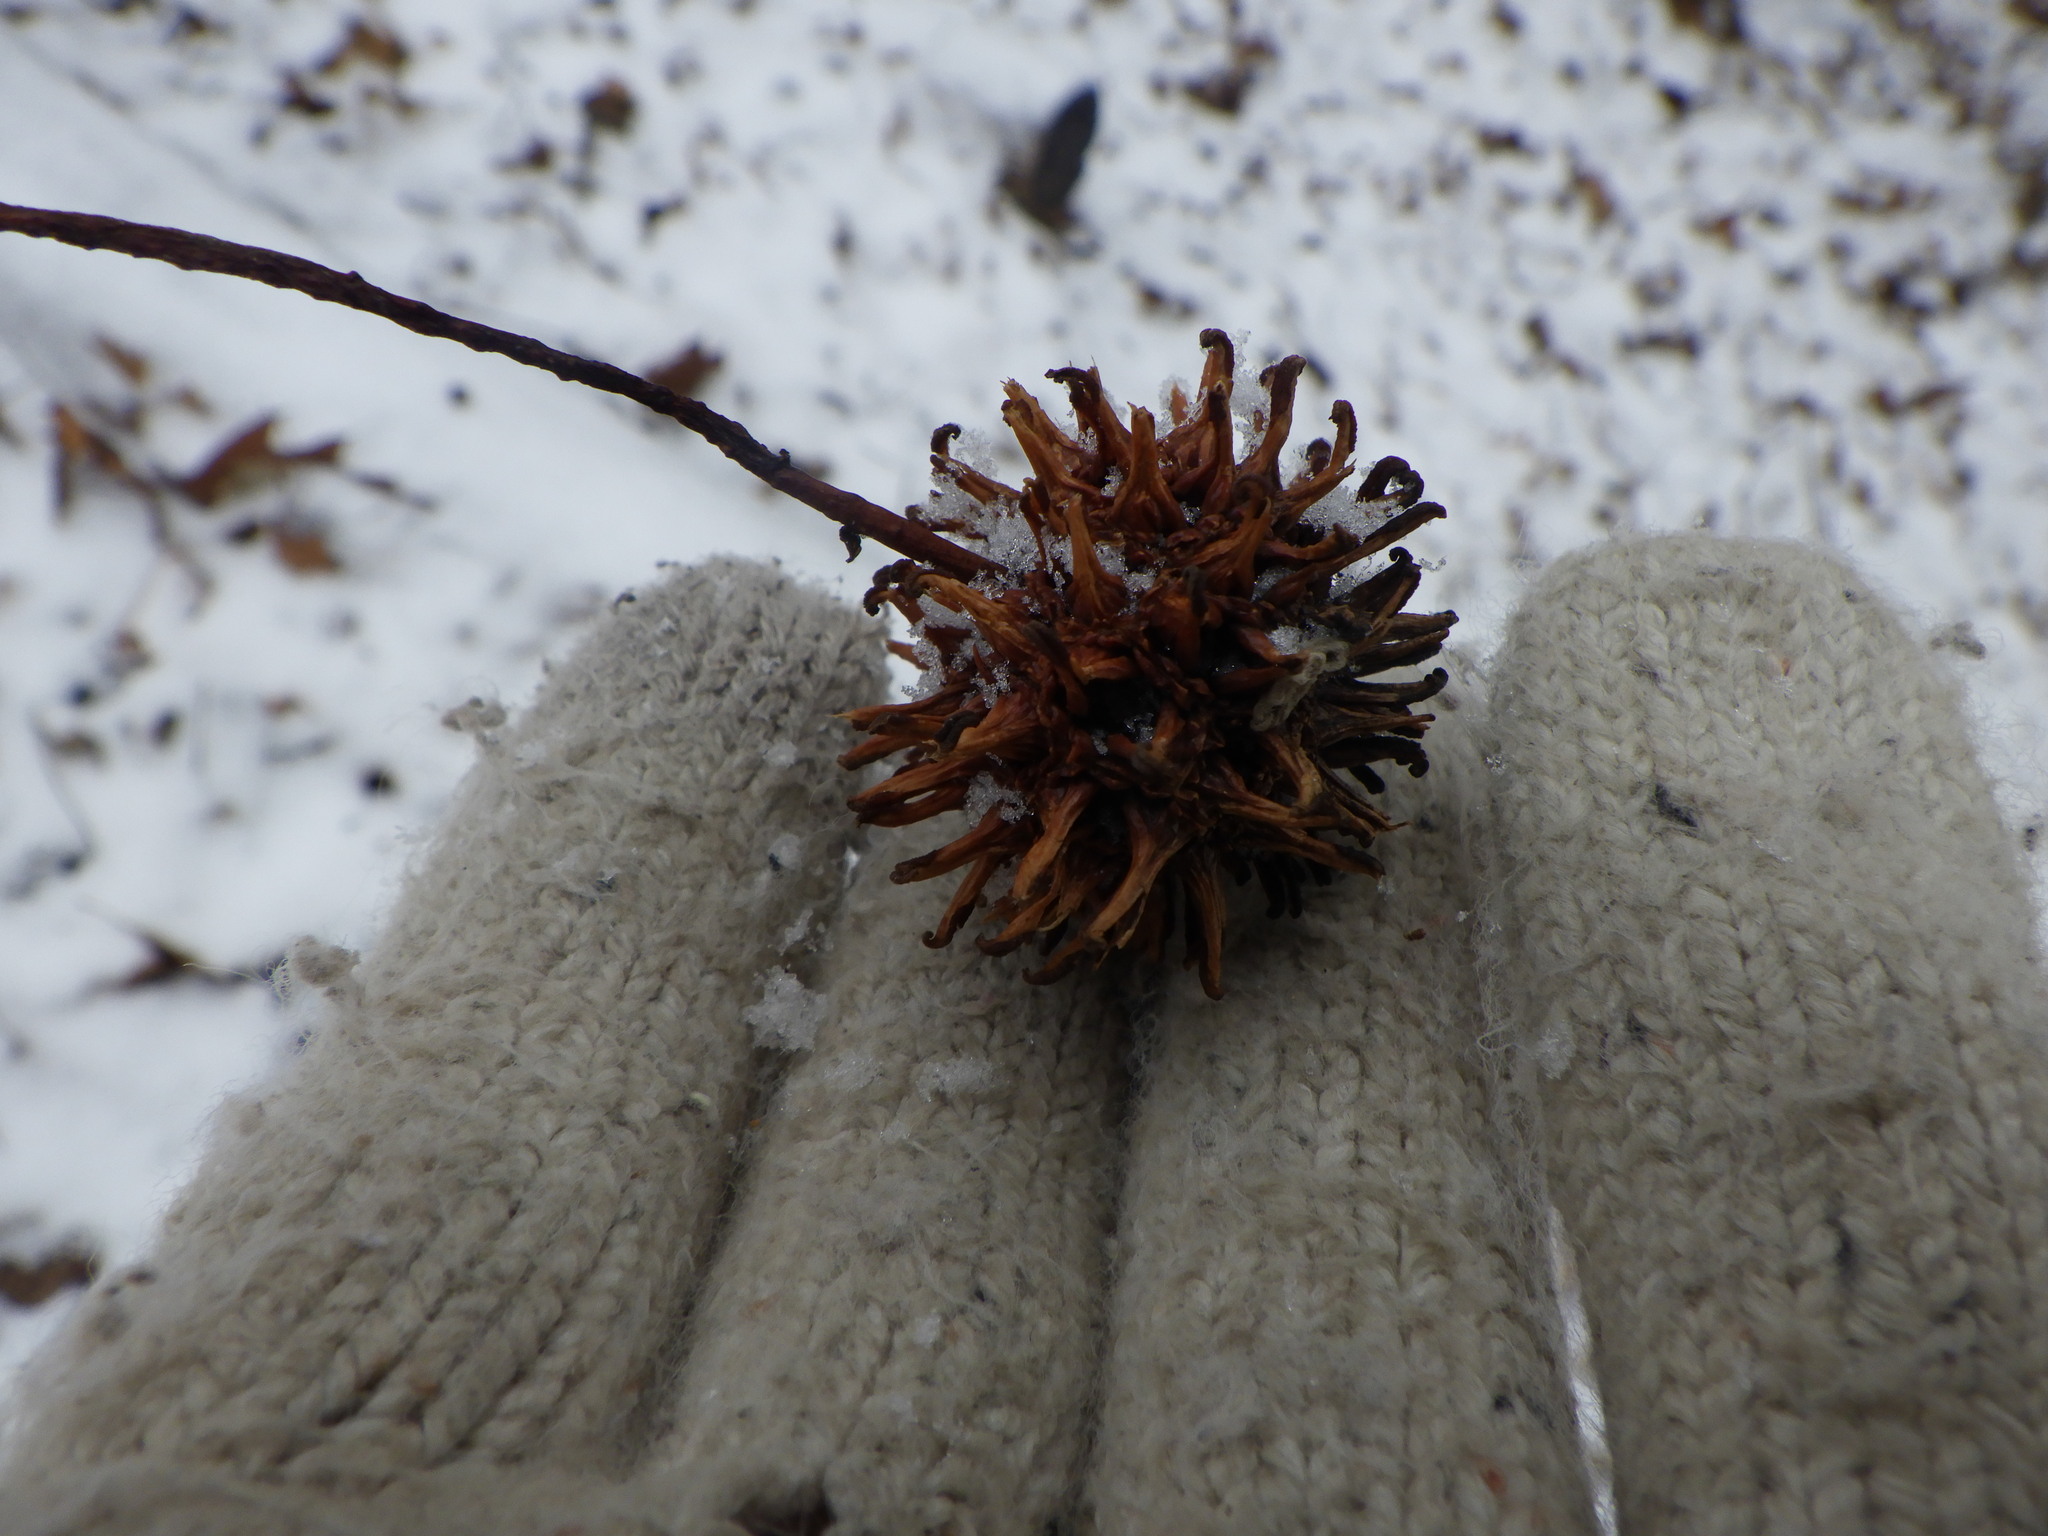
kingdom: Plantae
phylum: Tracheophyta
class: Magnoliopsida
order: Proteales
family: Platanaceae
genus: Platanus
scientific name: Platanus occidentalis
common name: American sycamore
